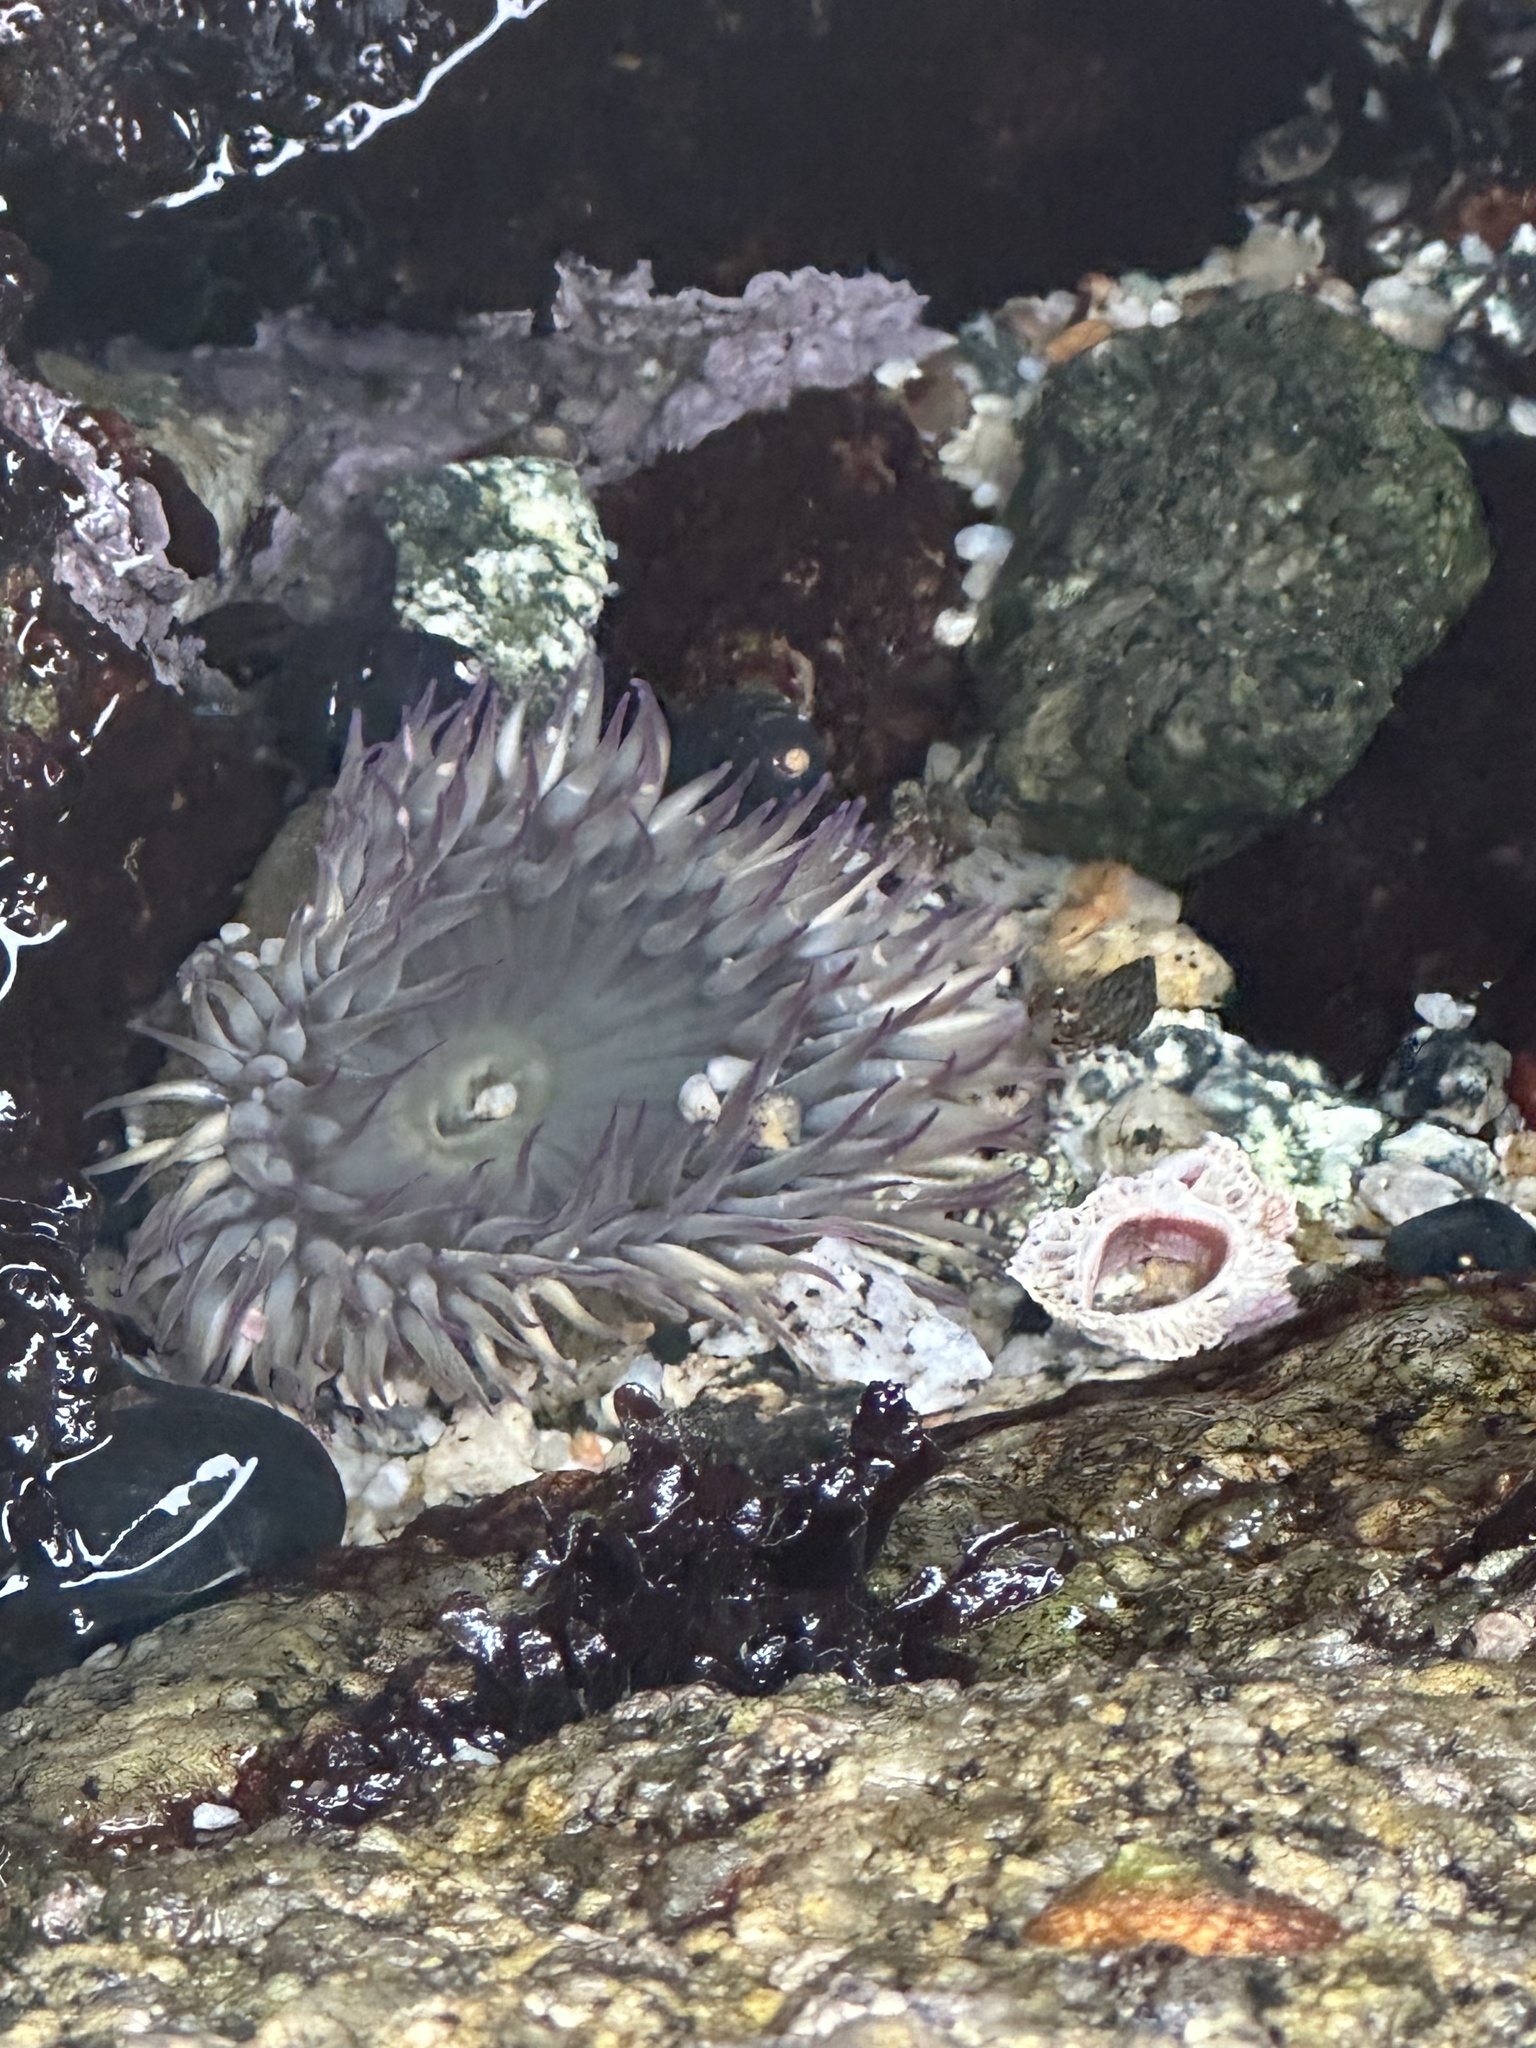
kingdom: Animalia
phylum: Cnidaria
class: Anthozoa
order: Actiniaria
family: Actiniidae
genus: Anthopleura
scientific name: Anthopleura elegantissima
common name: Clonal anemone
